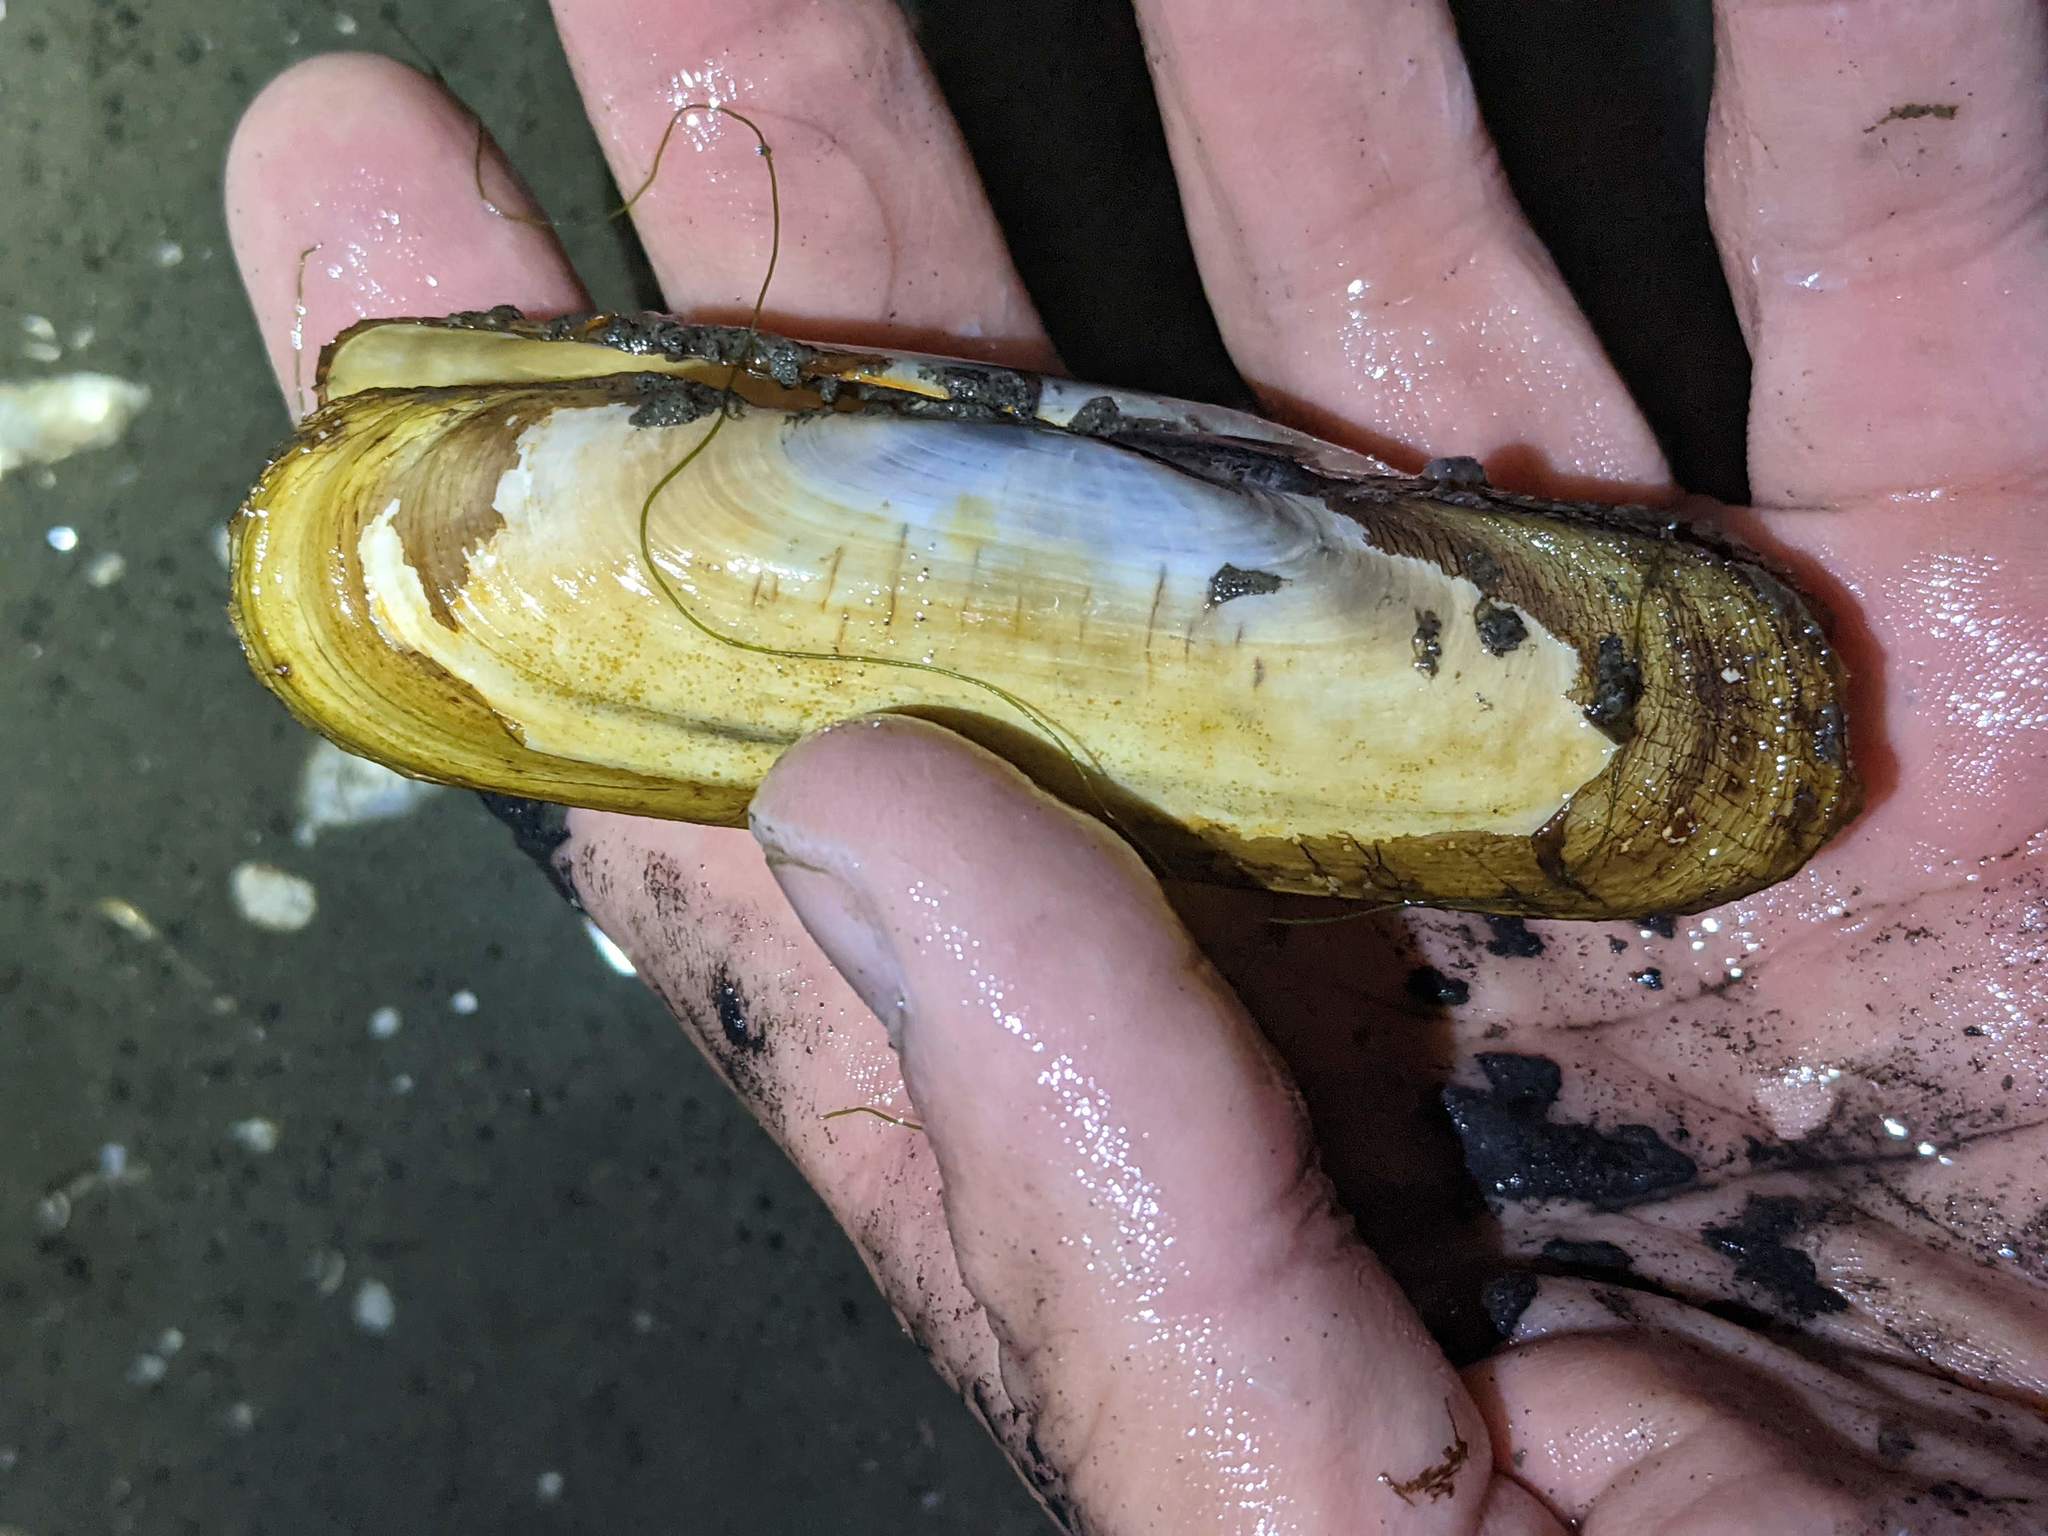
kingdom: Animalia
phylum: Mollusca
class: Bivalvia
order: Cardiida
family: Solecurtidae
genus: Tagelus
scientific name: Tagelus californianus
